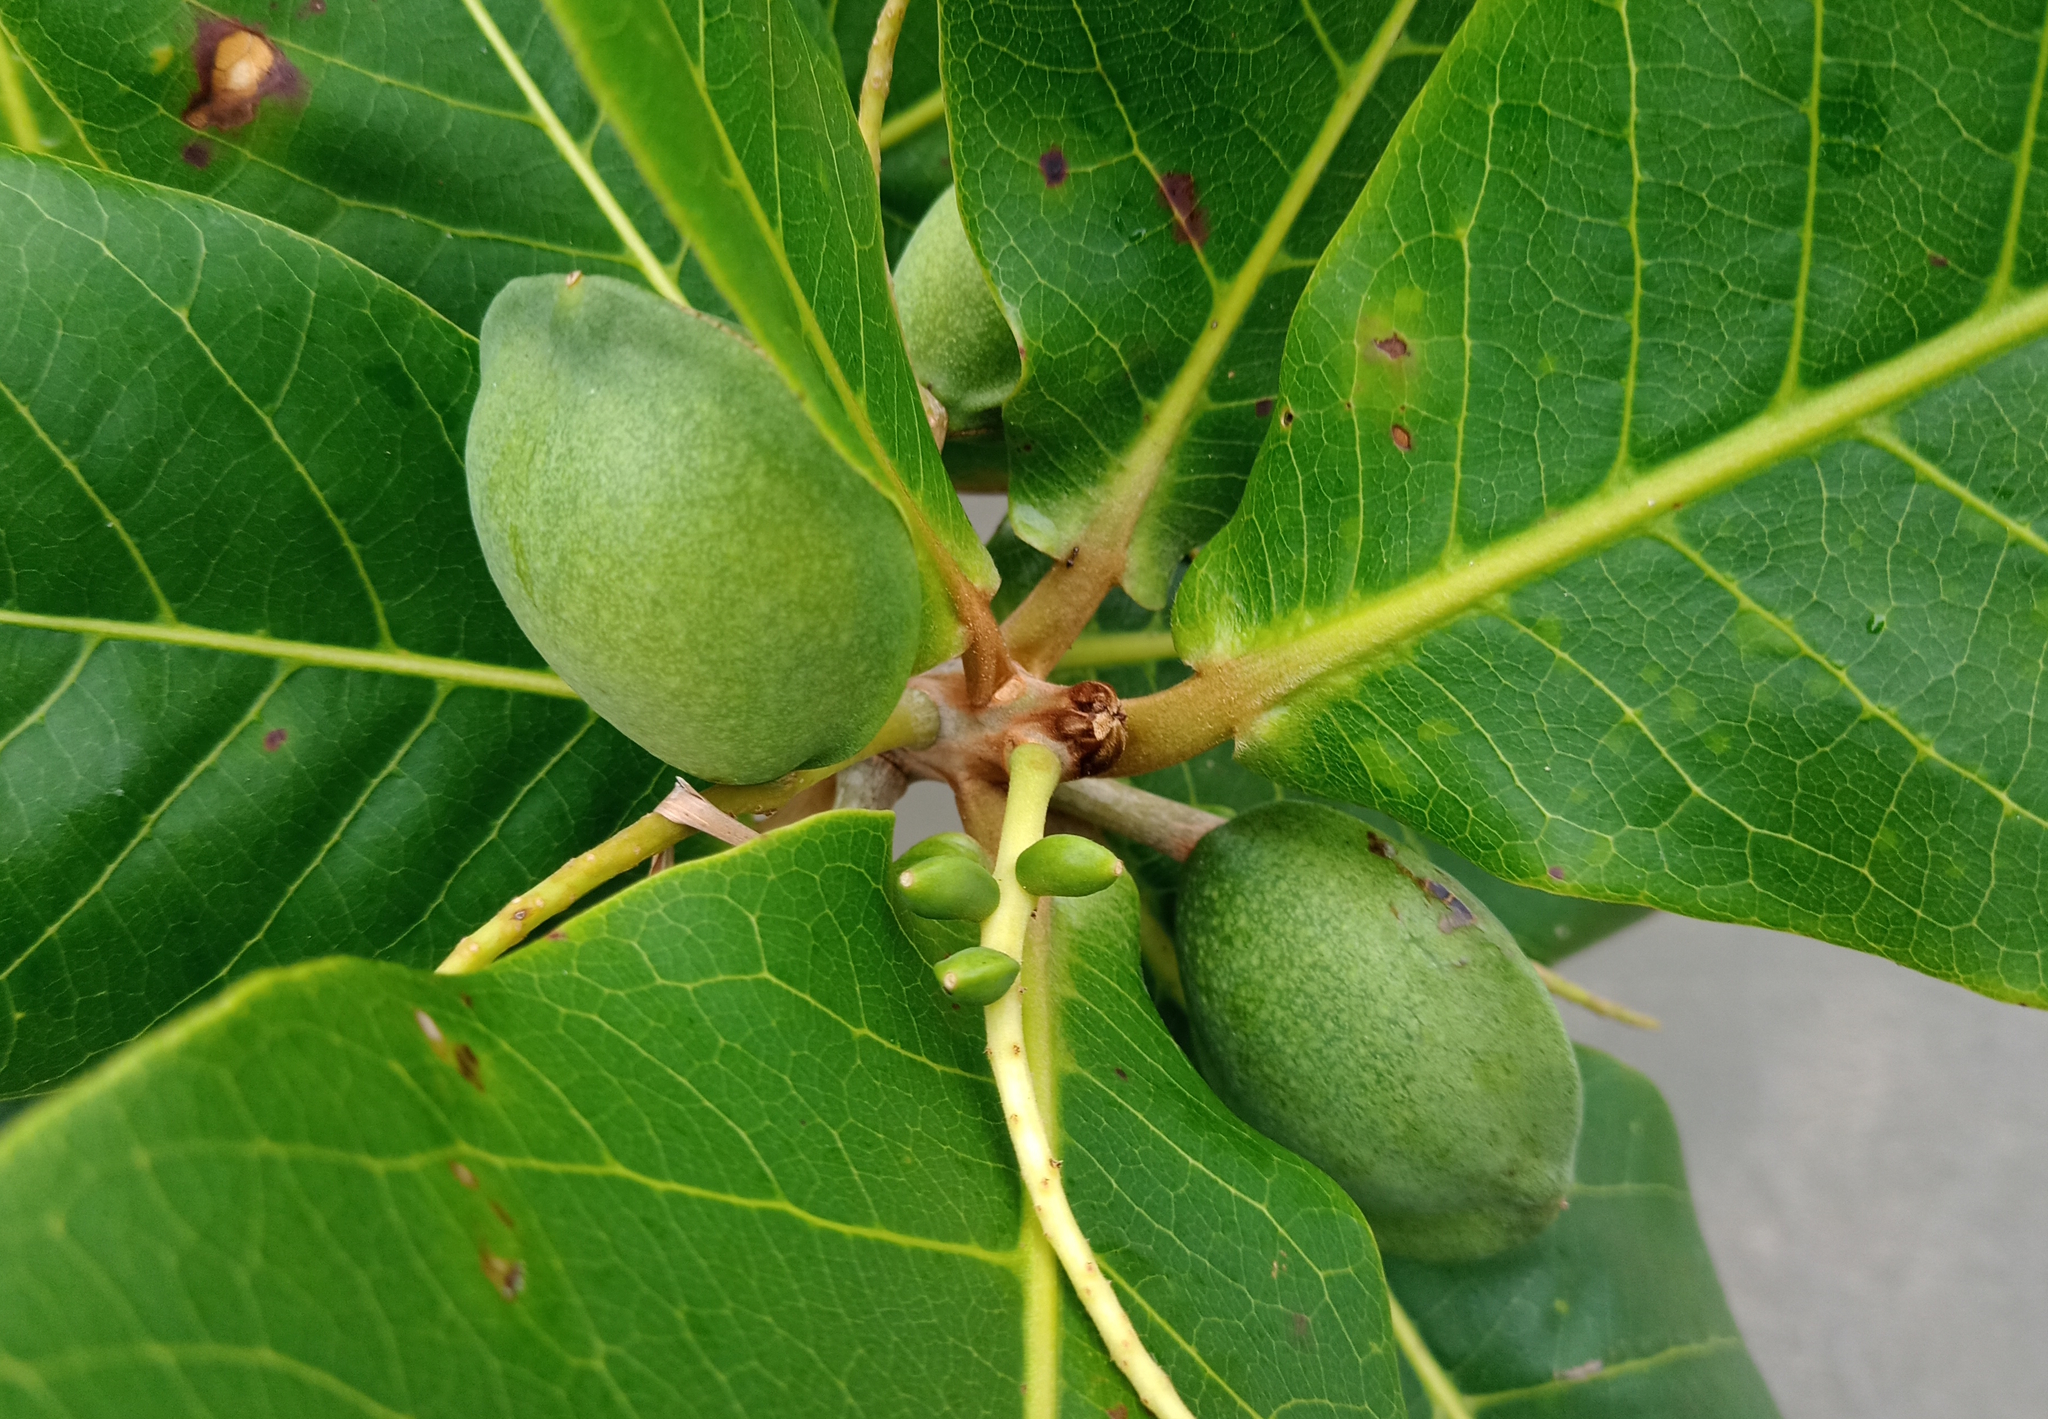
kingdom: Plantae
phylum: Tracheophyta
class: Magnoliopsida
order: Myrtales
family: Combretaceae
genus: Terminalia
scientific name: Terminalia catappa
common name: Tropical almond
